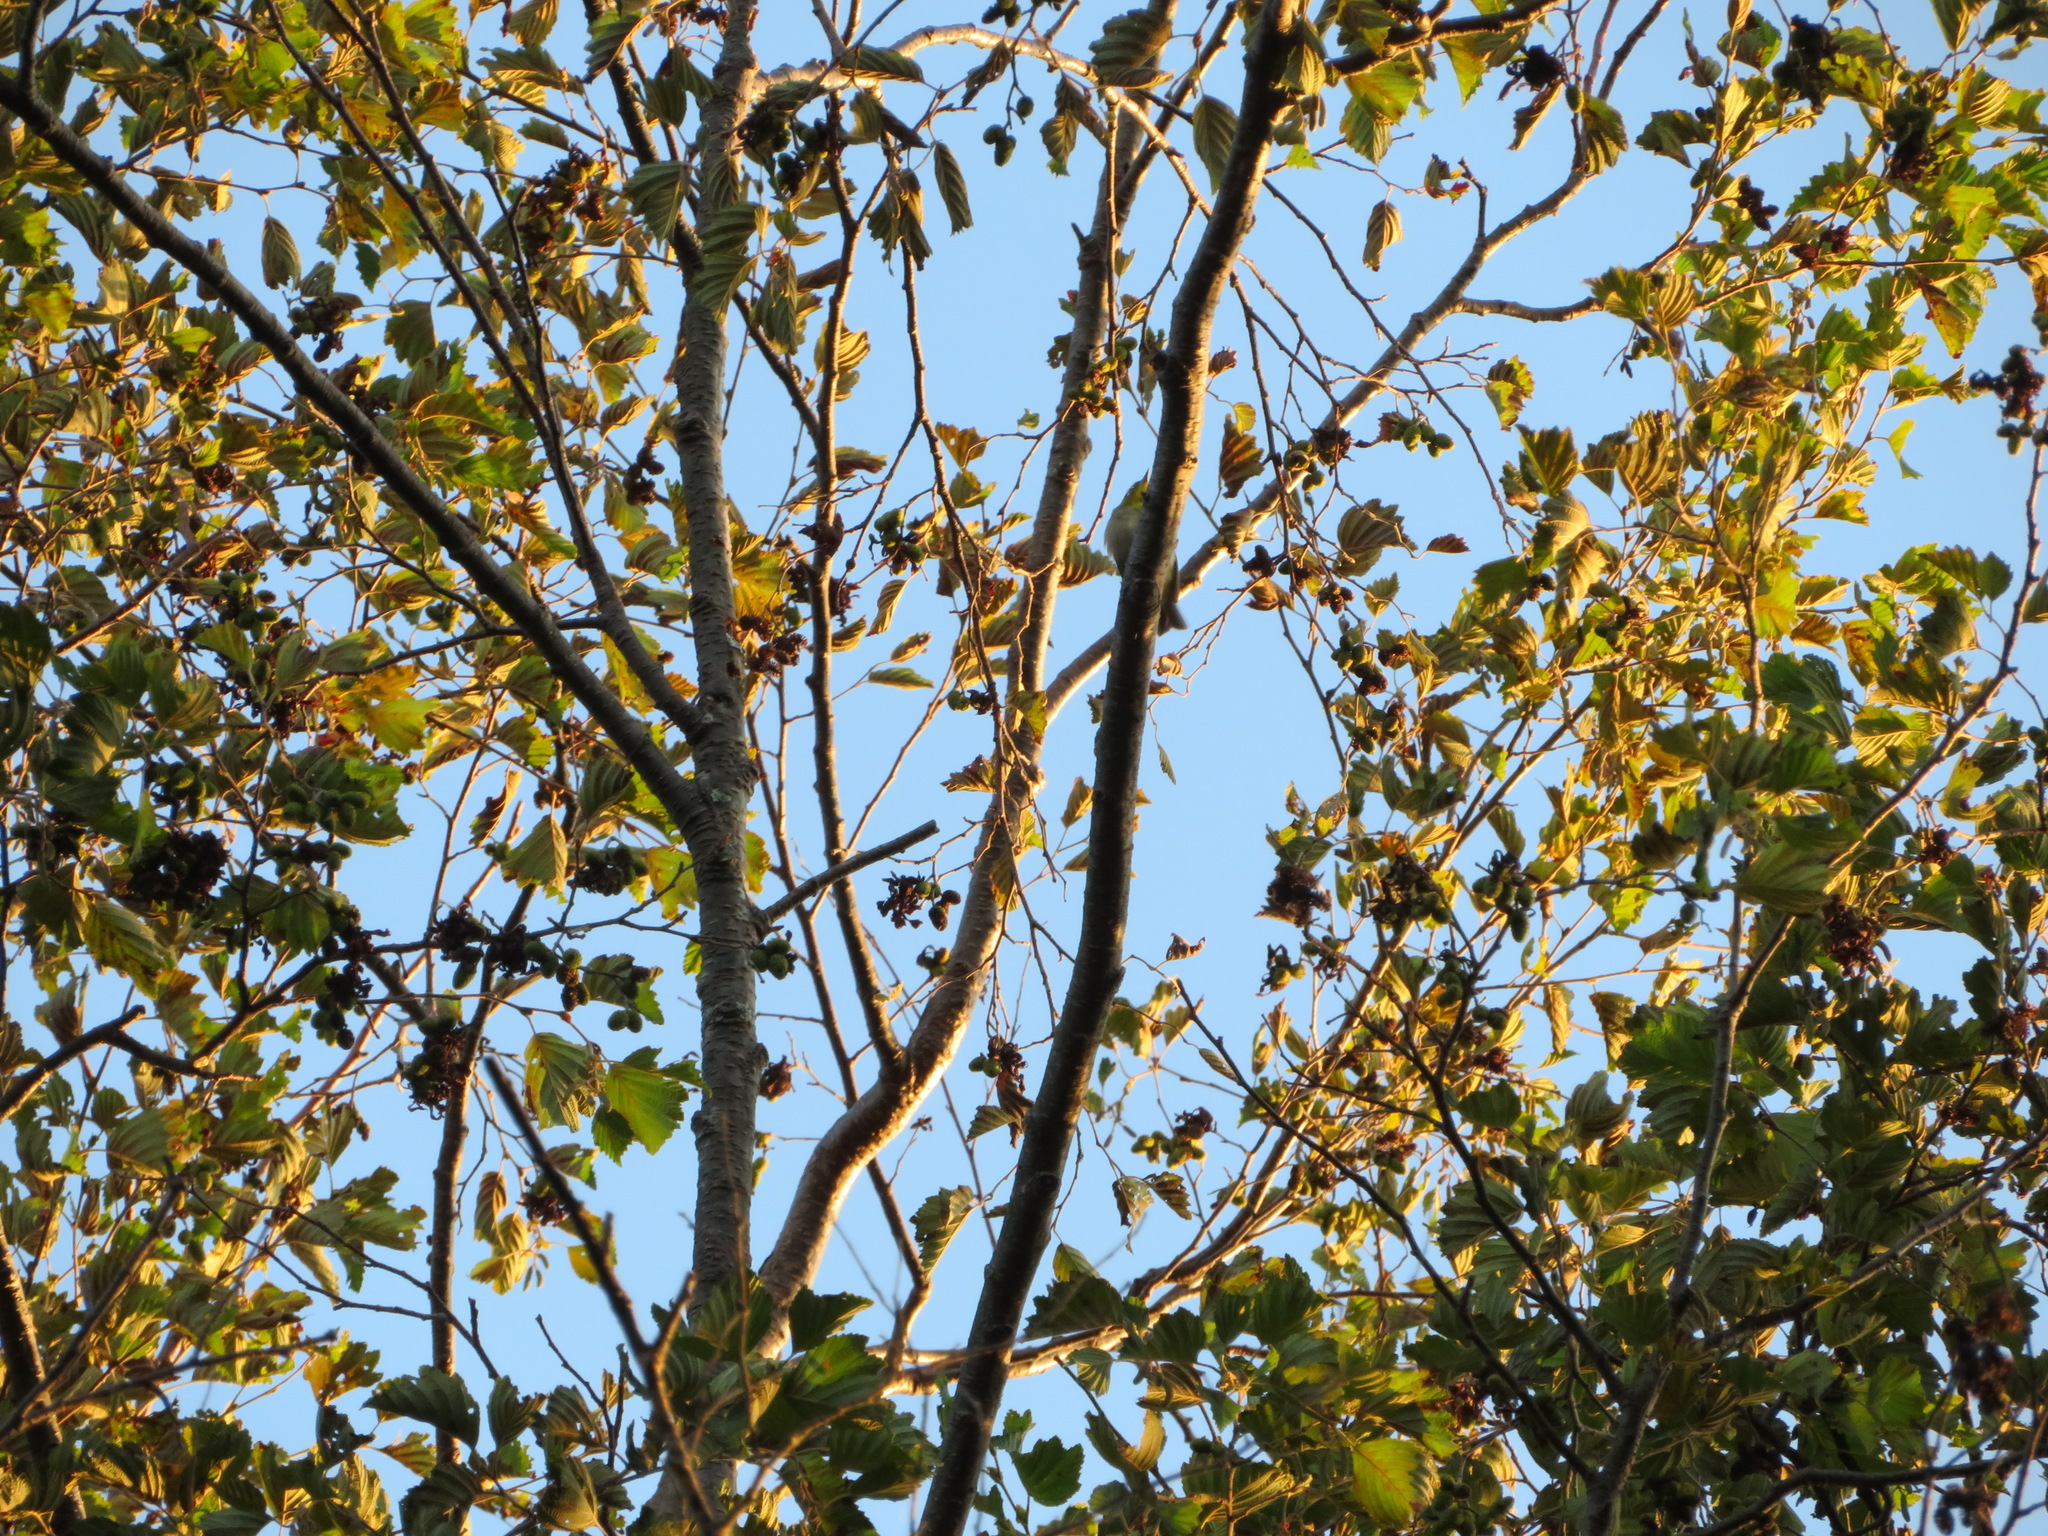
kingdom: Animalia
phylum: Chordata
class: Aves
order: Passeriformes
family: Zosteropidae
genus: Zosterops
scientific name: Zosterops japonicus
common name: Japanese white-eye
